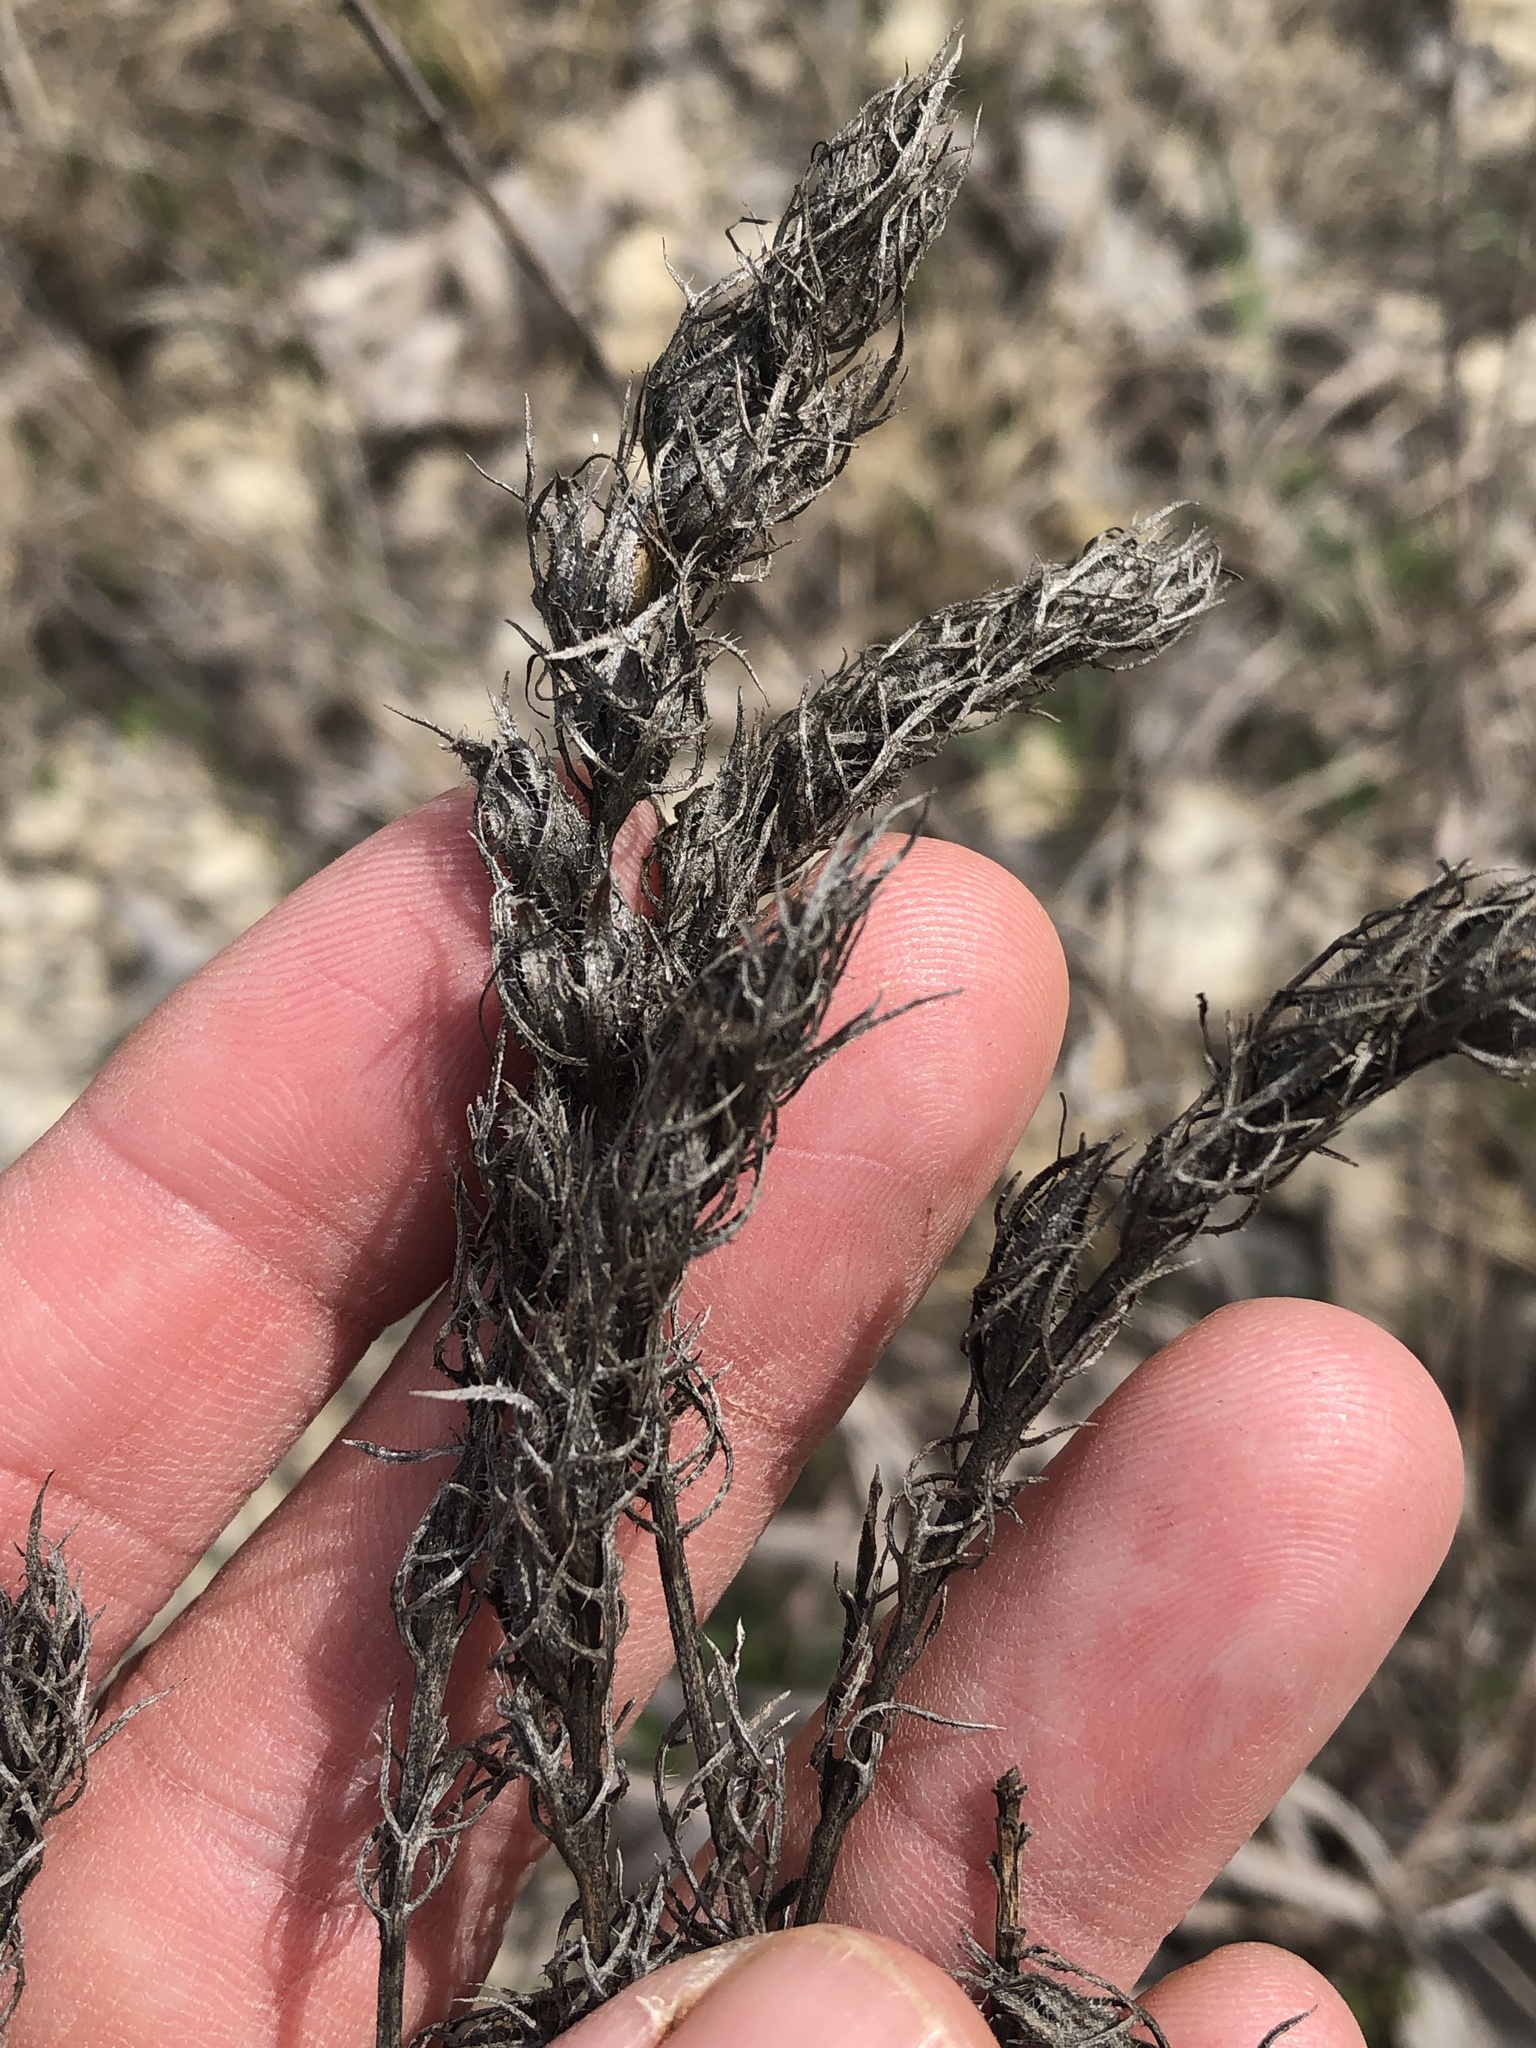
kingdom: Plantae
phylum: Tracheophyta
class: Magnoliopsida
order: Lamiales
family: Orobanchaceae
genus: Agalinis
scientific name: Agalinis densiflora
